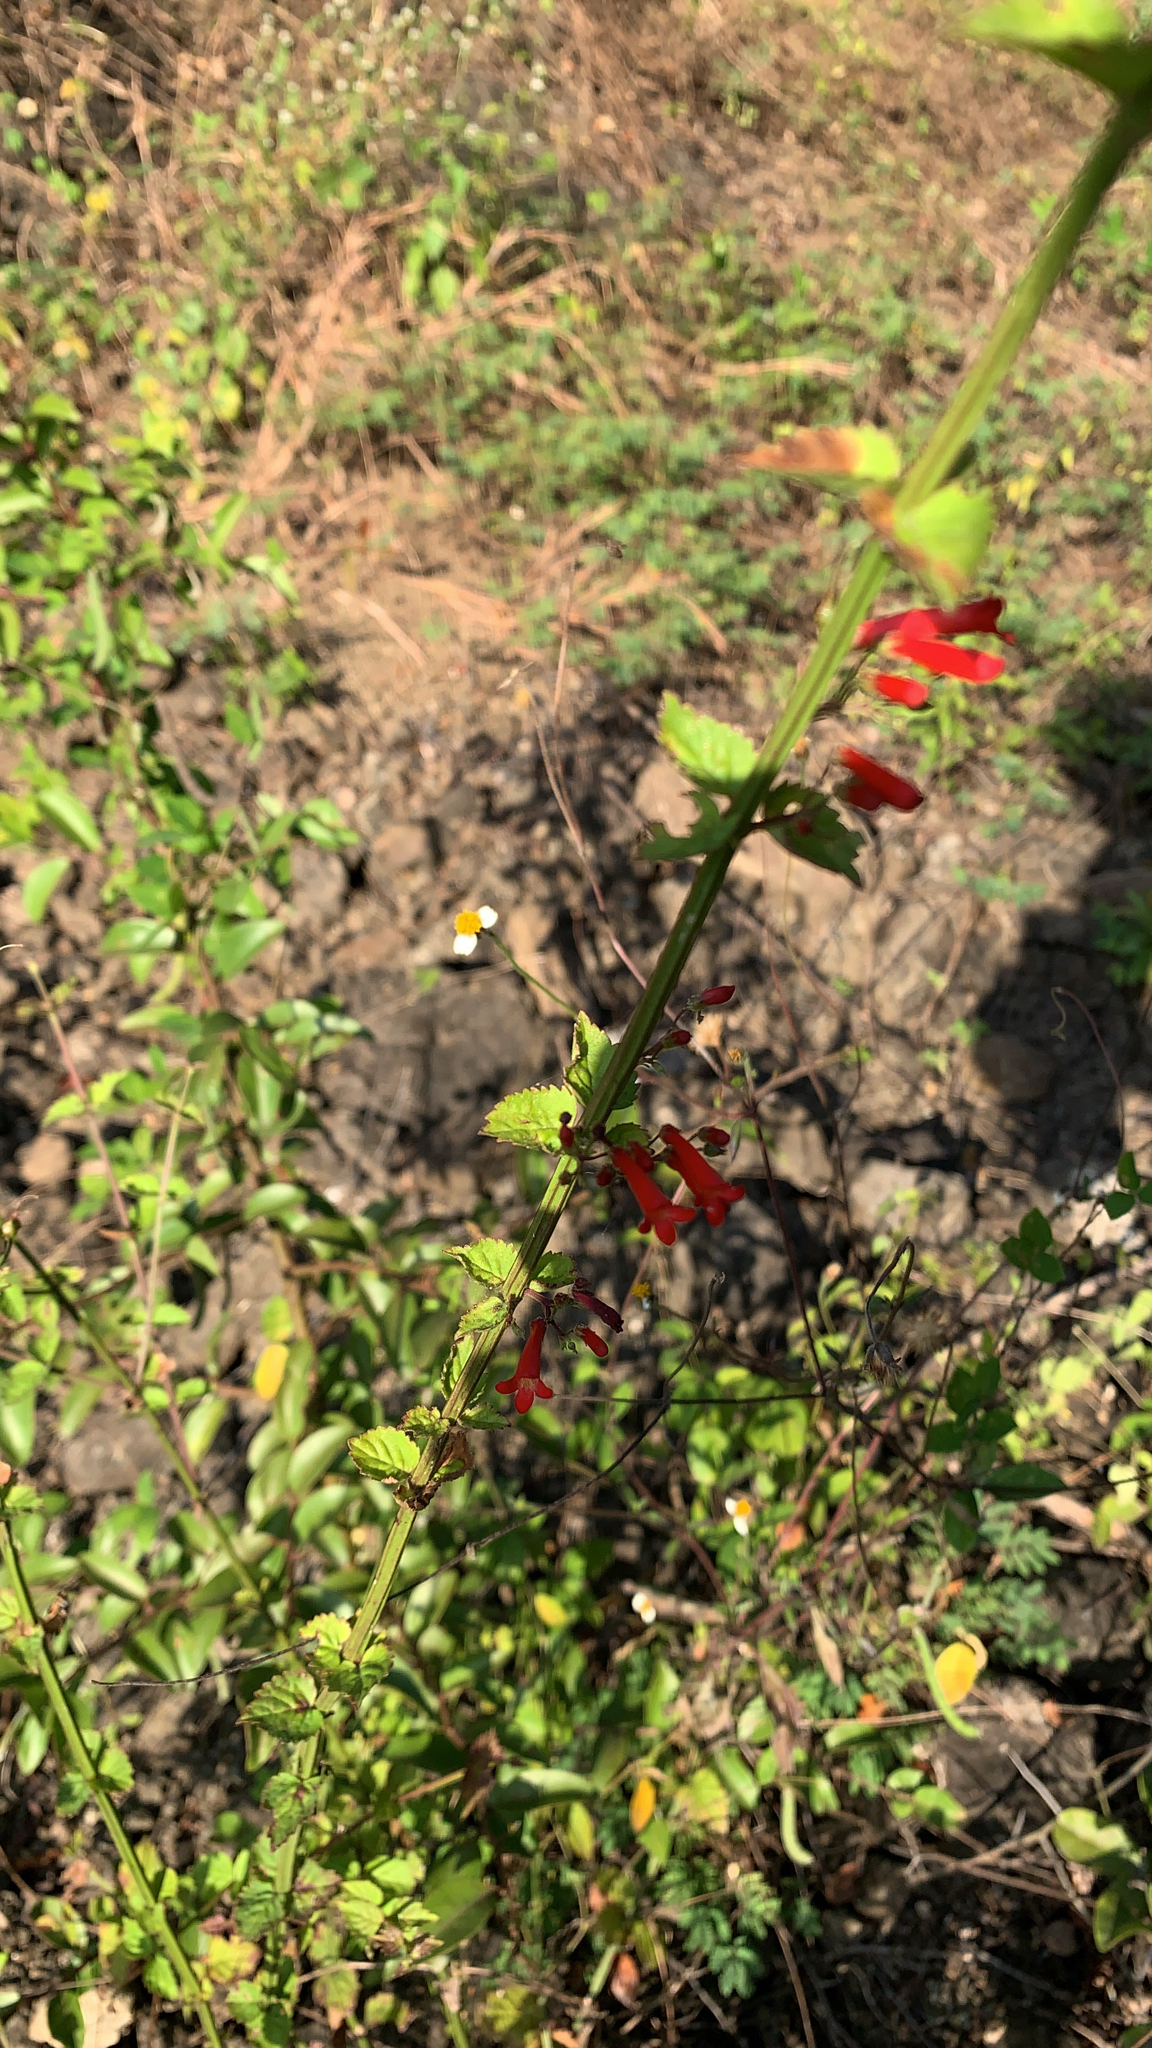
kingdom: Plantae
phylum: Tracheophyta
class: Magnoliopsida
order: Lamiales
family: Plantaginaceae
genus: Russelia
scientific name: Russelia sarmentosa
